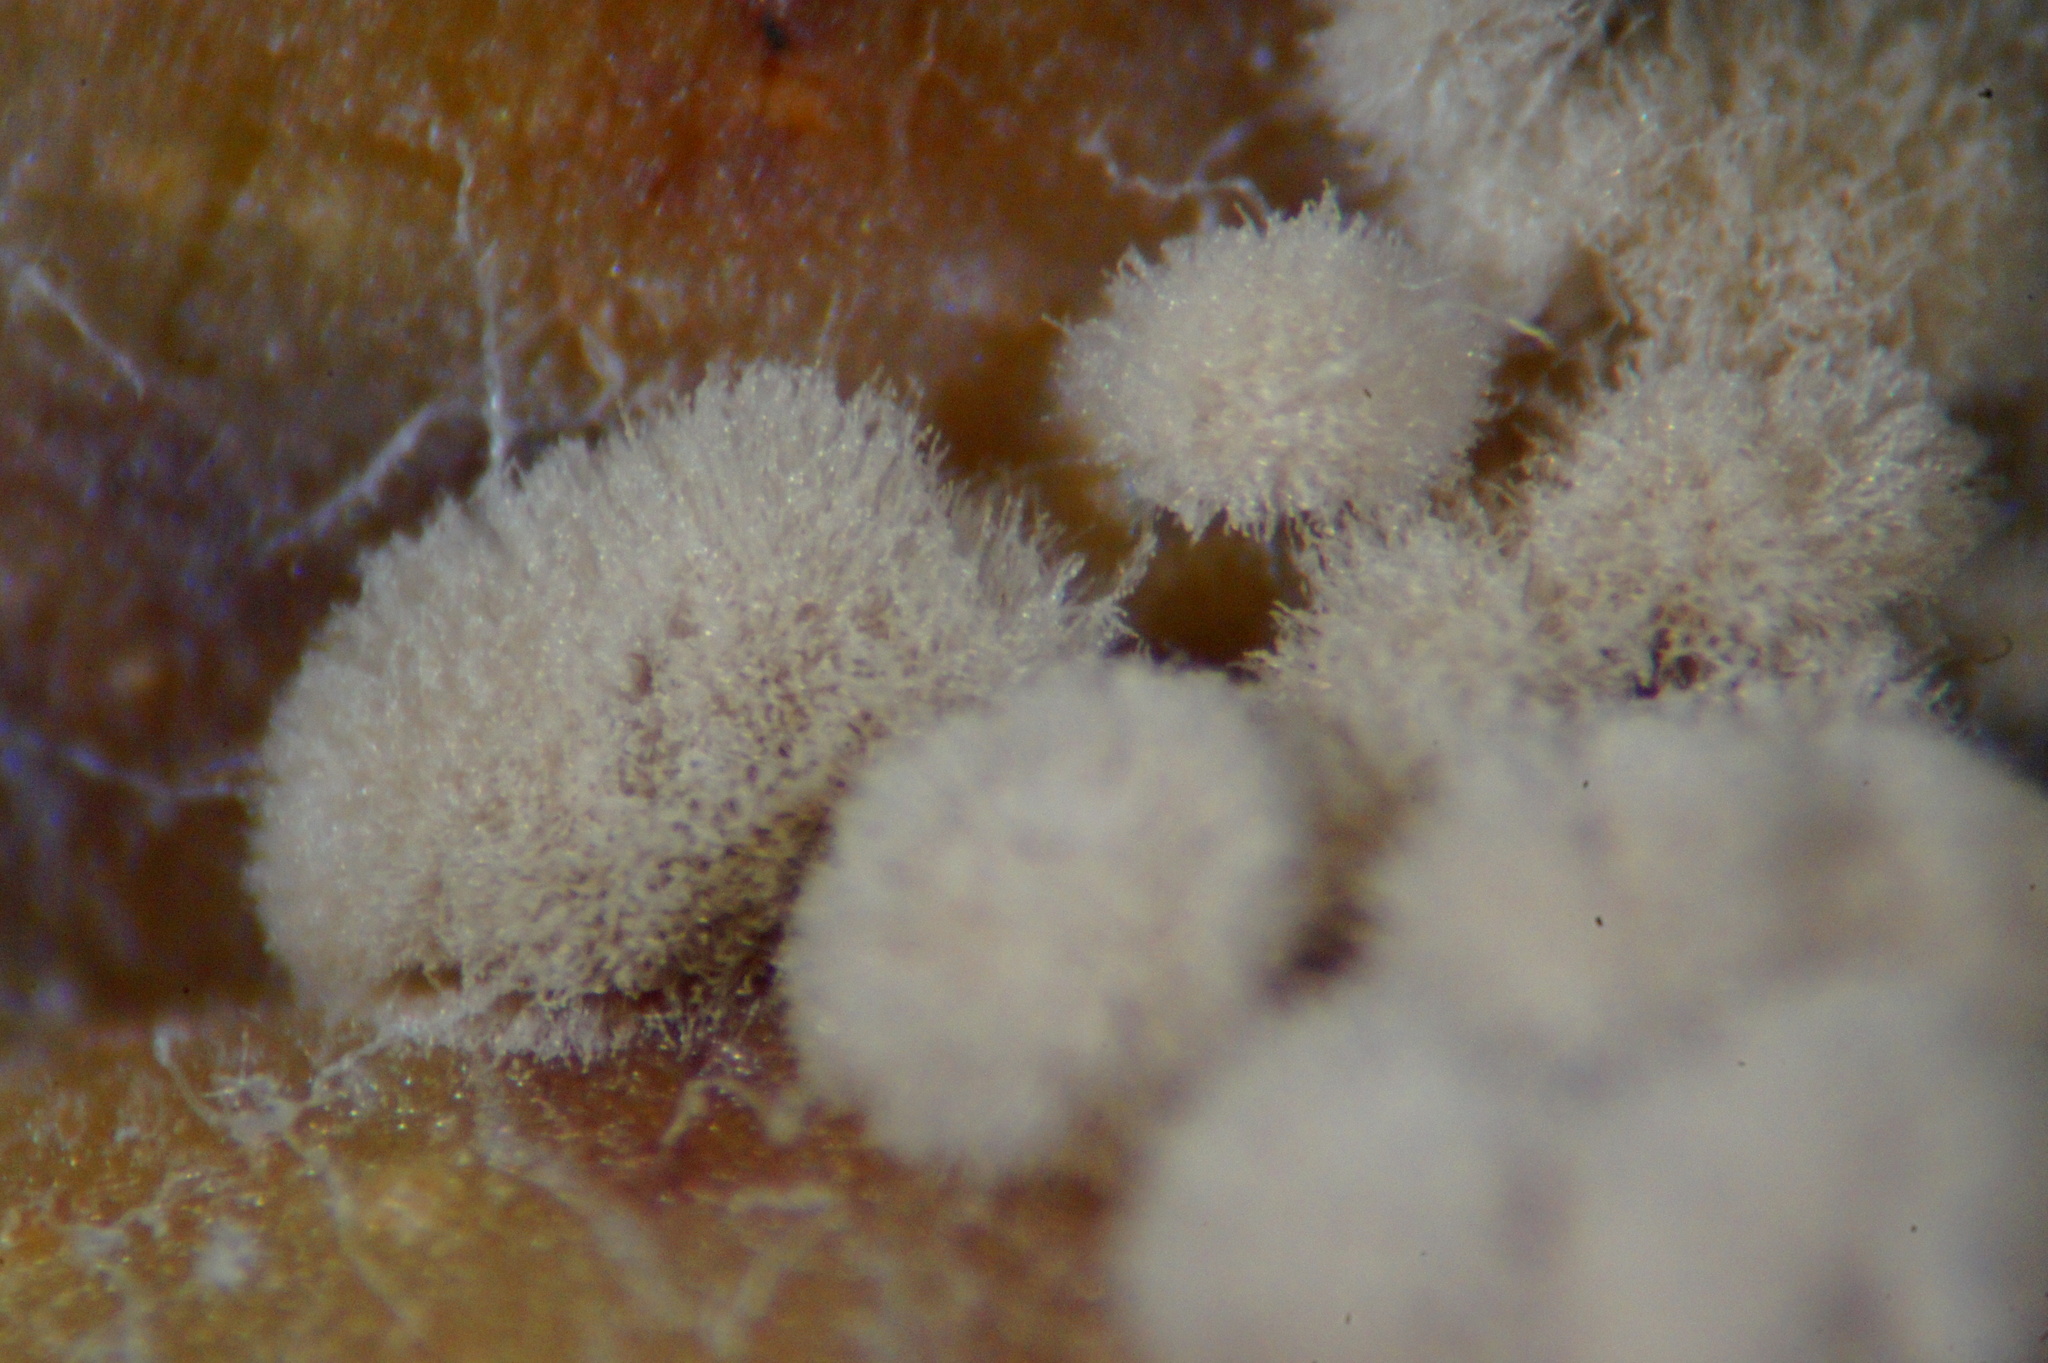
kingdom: Fungi
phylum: Ascomycota
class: Leotiomycetes
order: Helotiales
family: Sclerotiniaceae
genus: Monilinia
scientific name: Monilinia fructigena
